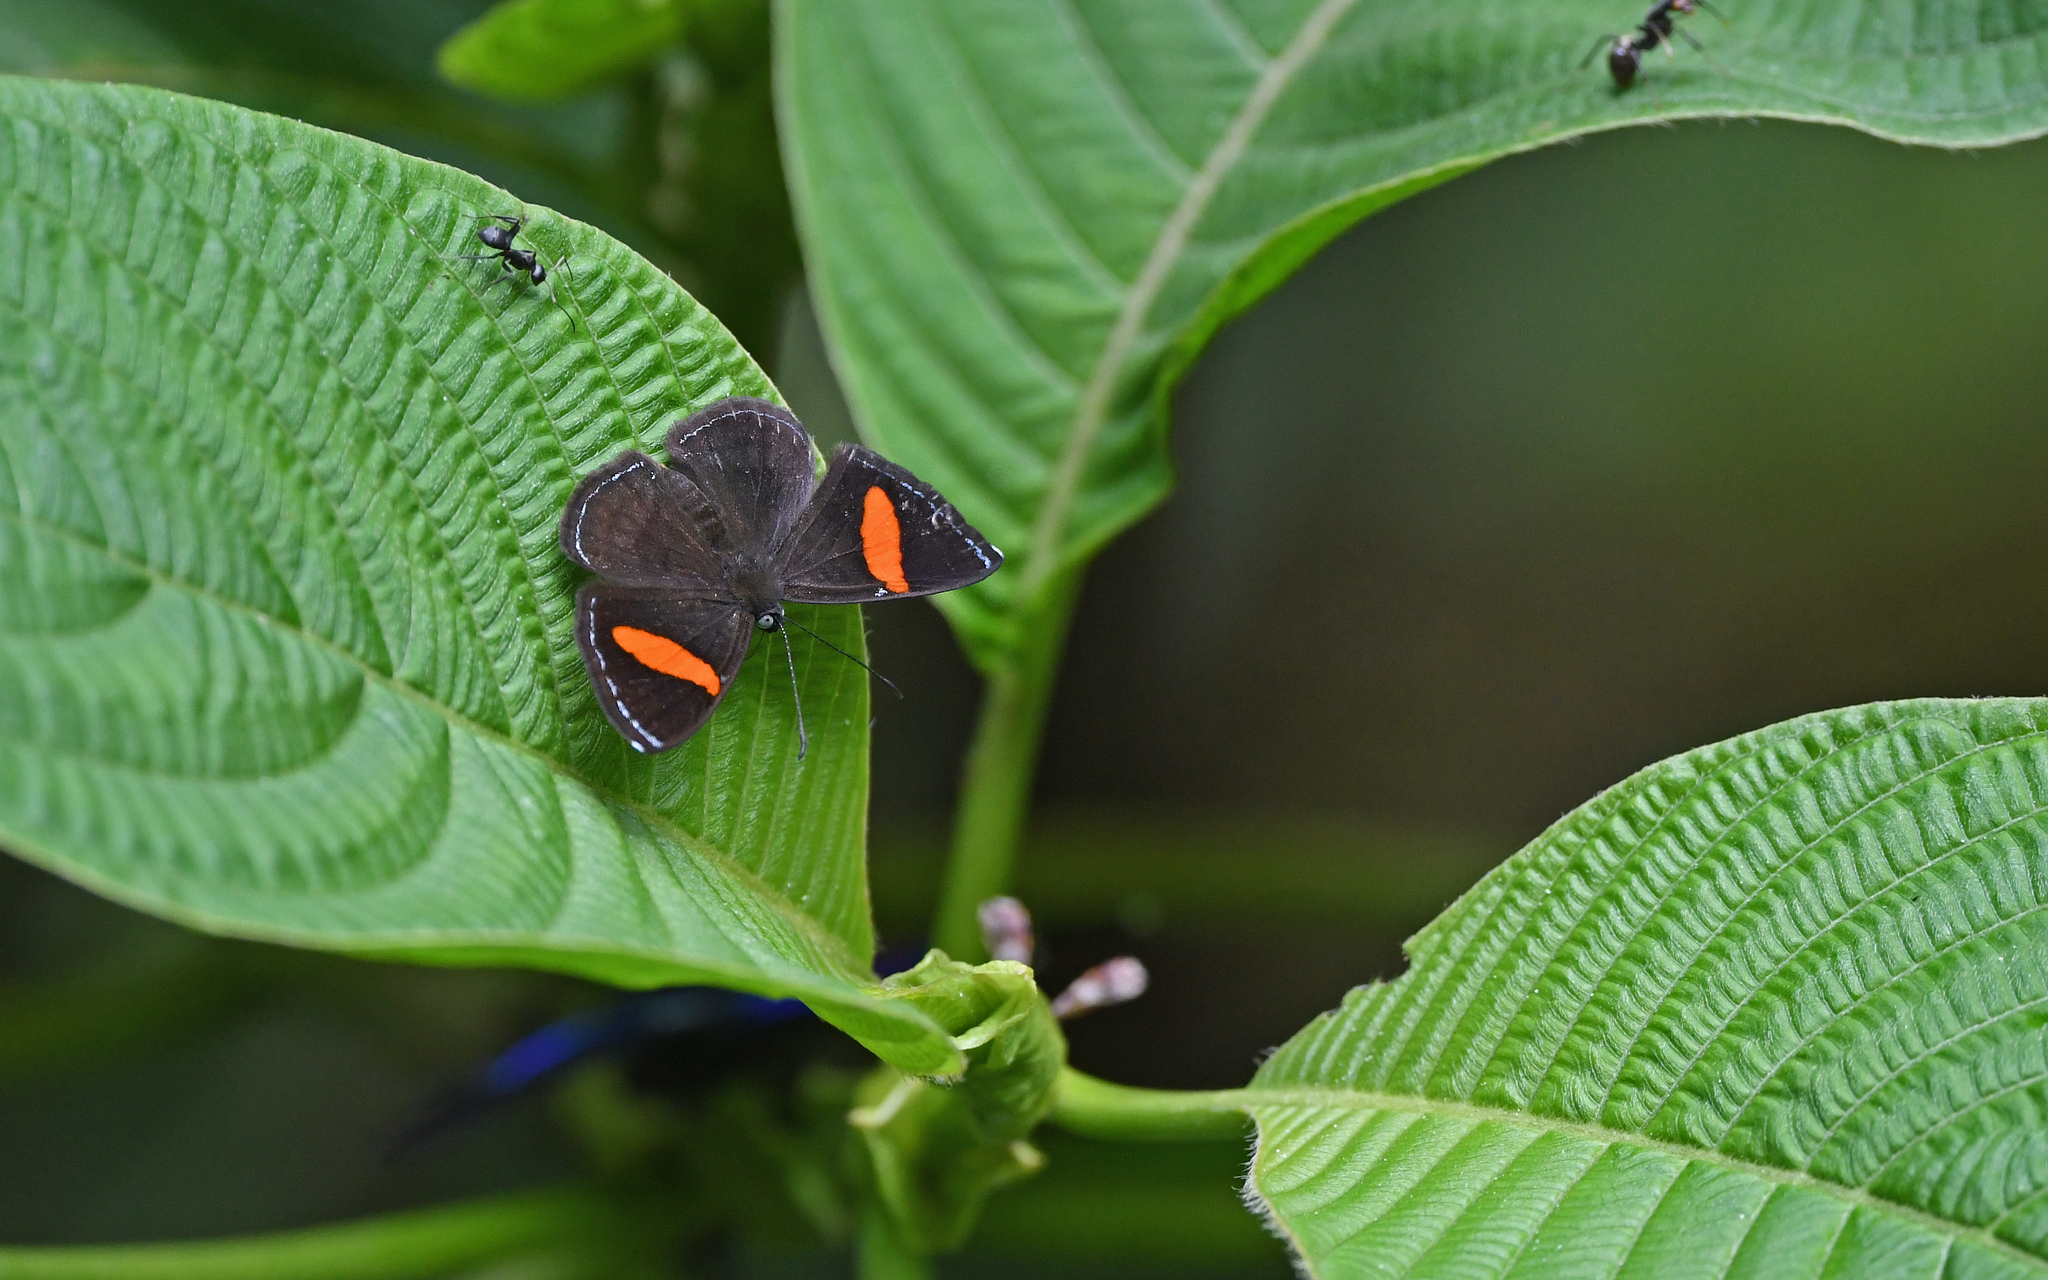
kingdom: Animalia
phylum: Arthropoda
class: Insecta
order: Lepidoptera
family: Riodinidae
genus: Crocozona
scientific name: Crocozona fasciata
